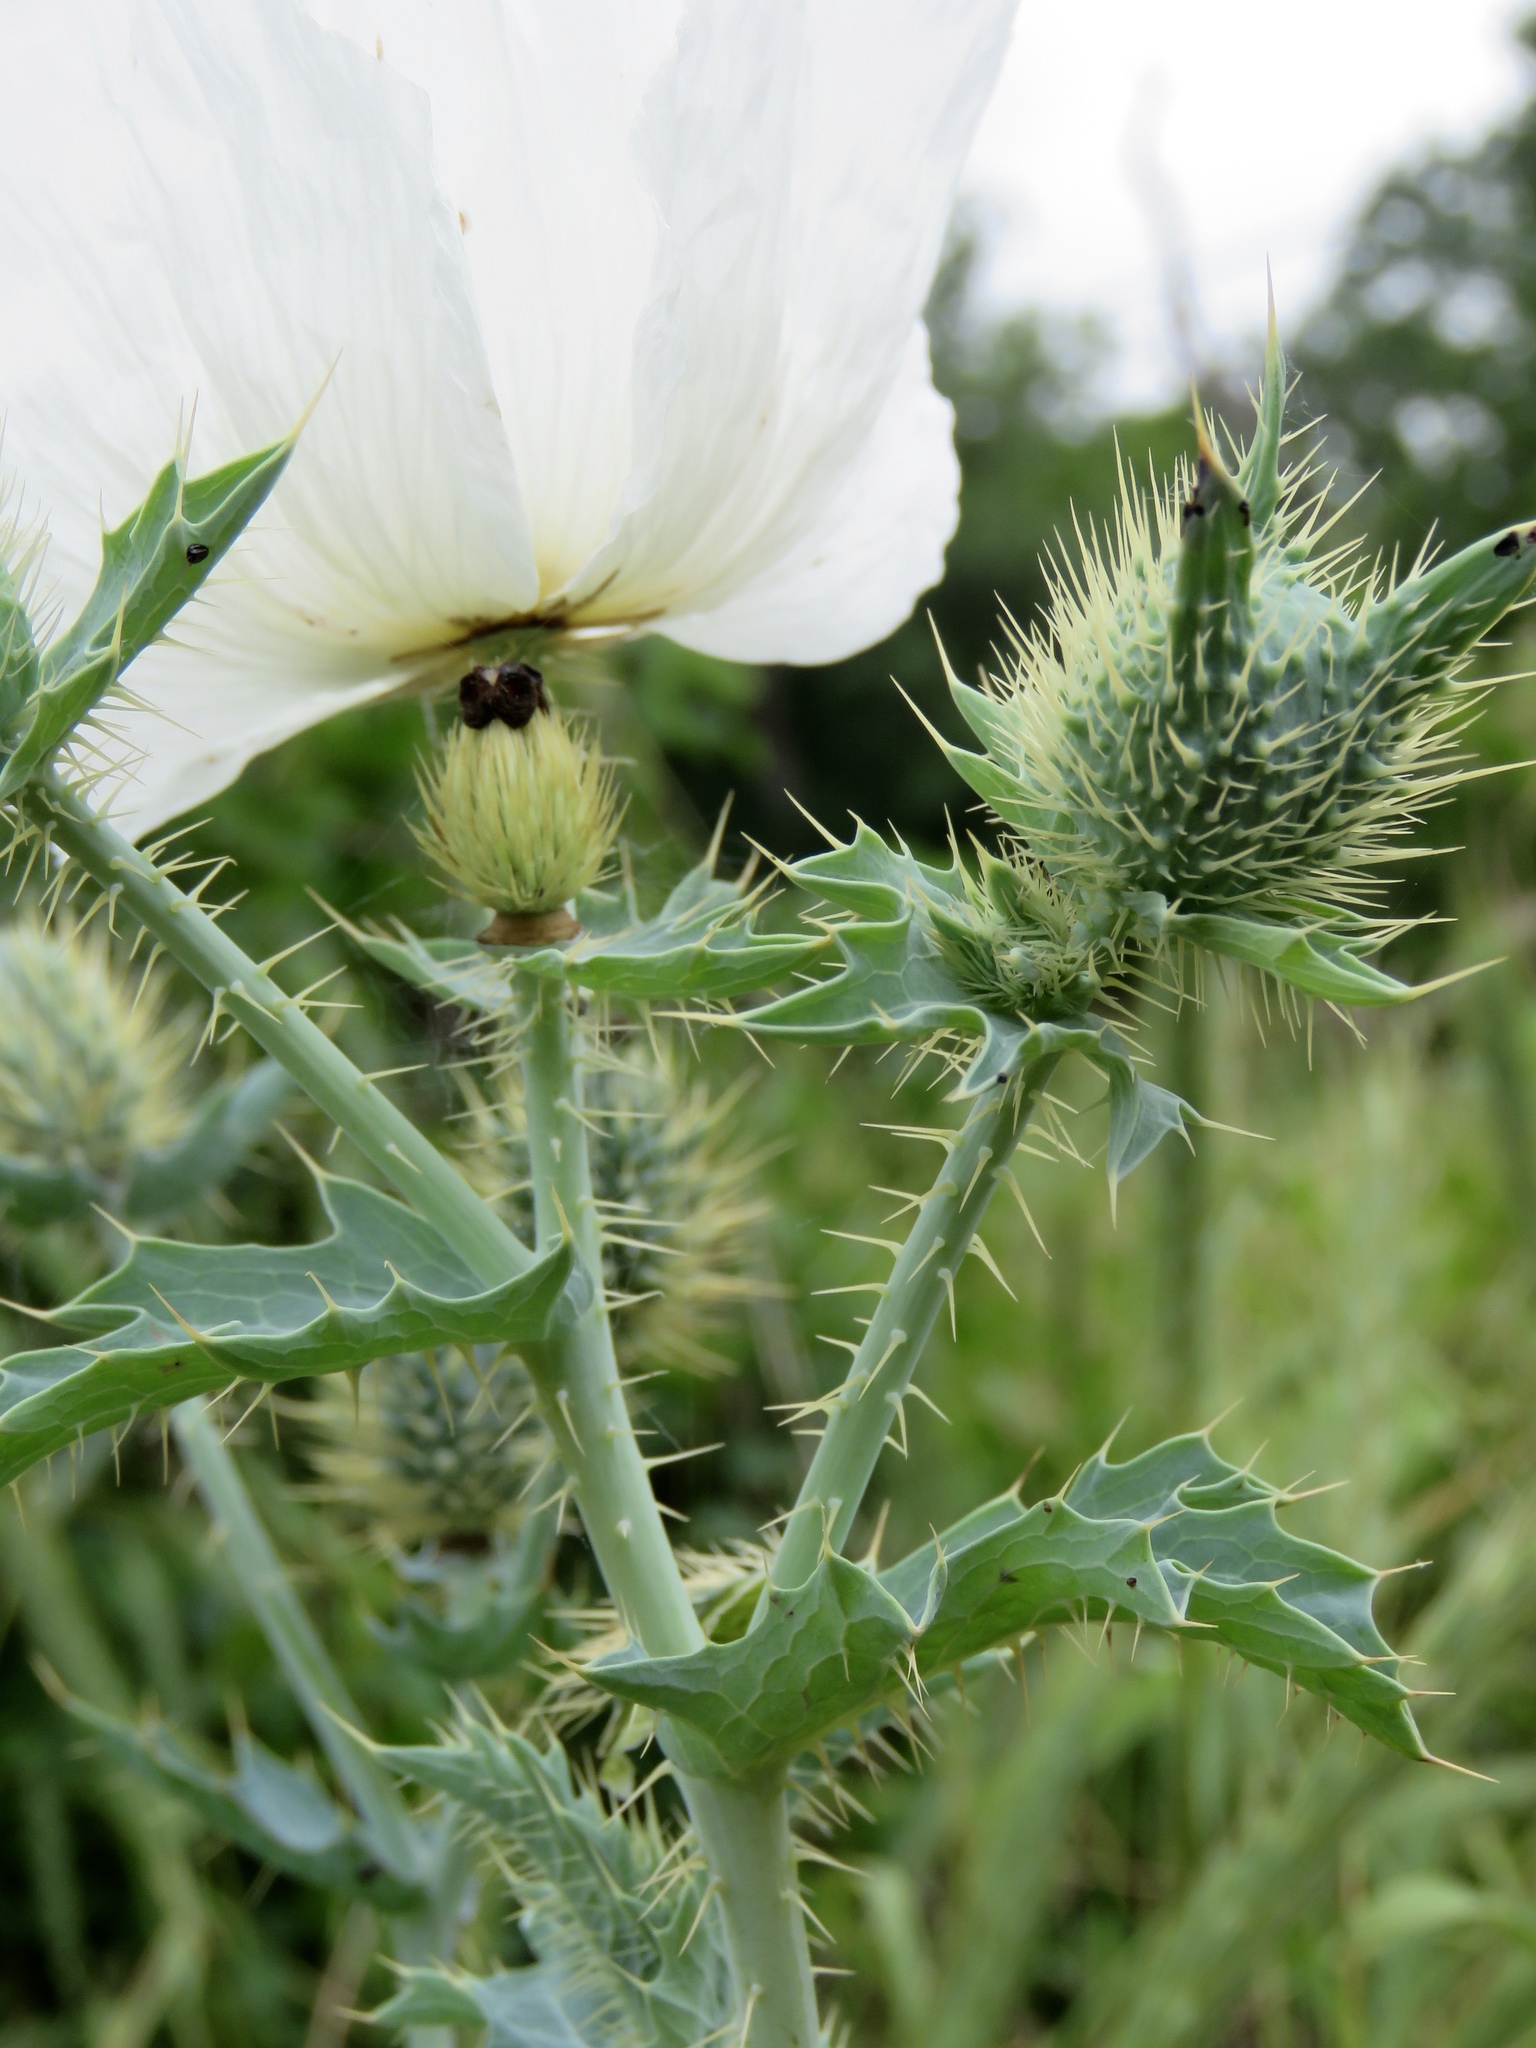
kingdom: Plantae
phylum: Tracheophyta
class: Magnoliopsida
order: Ranunculales
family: Papaveraceae
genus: Argemone
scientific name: Argemone albiflora
